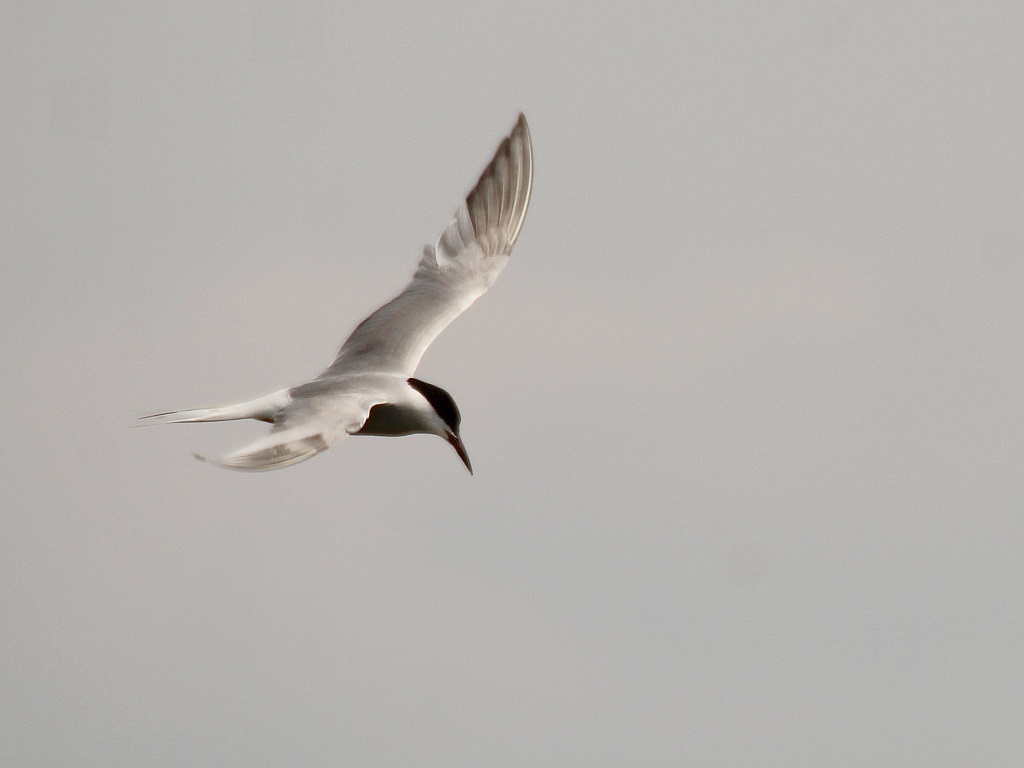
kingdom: Animalia
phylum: Chordata
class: Aves
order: Charadriiformes
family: Laridae
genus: Sterna
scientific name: Sterna hirundo
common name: Common tern
